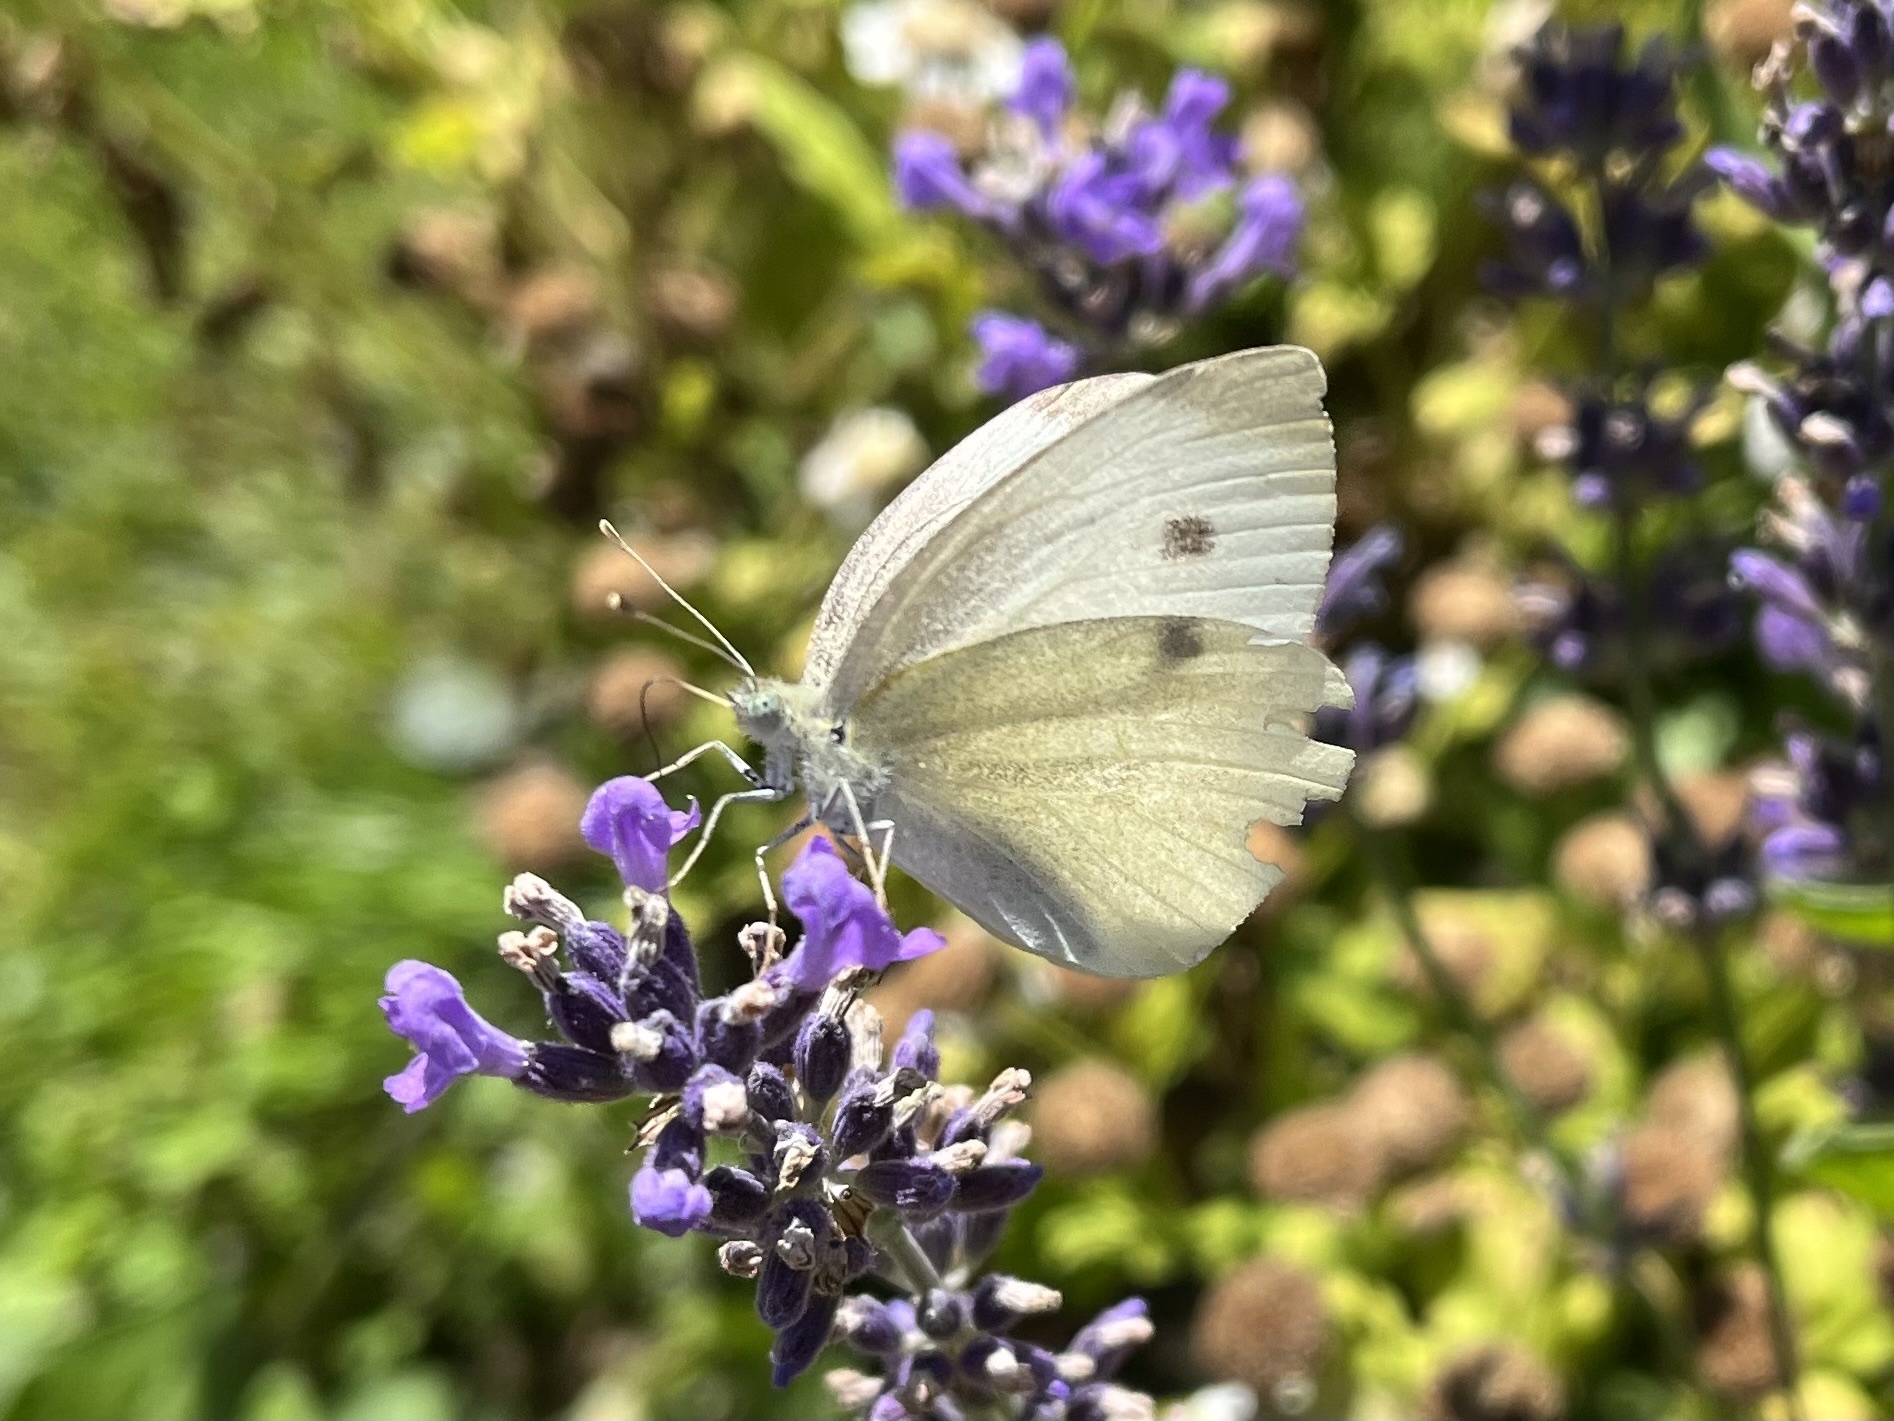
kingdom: Animalia
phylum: Arthropoda
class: Insecta
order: Lepidoptera
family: Pieridae
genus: Pieris
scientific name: Pieris rapae
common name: Small white
